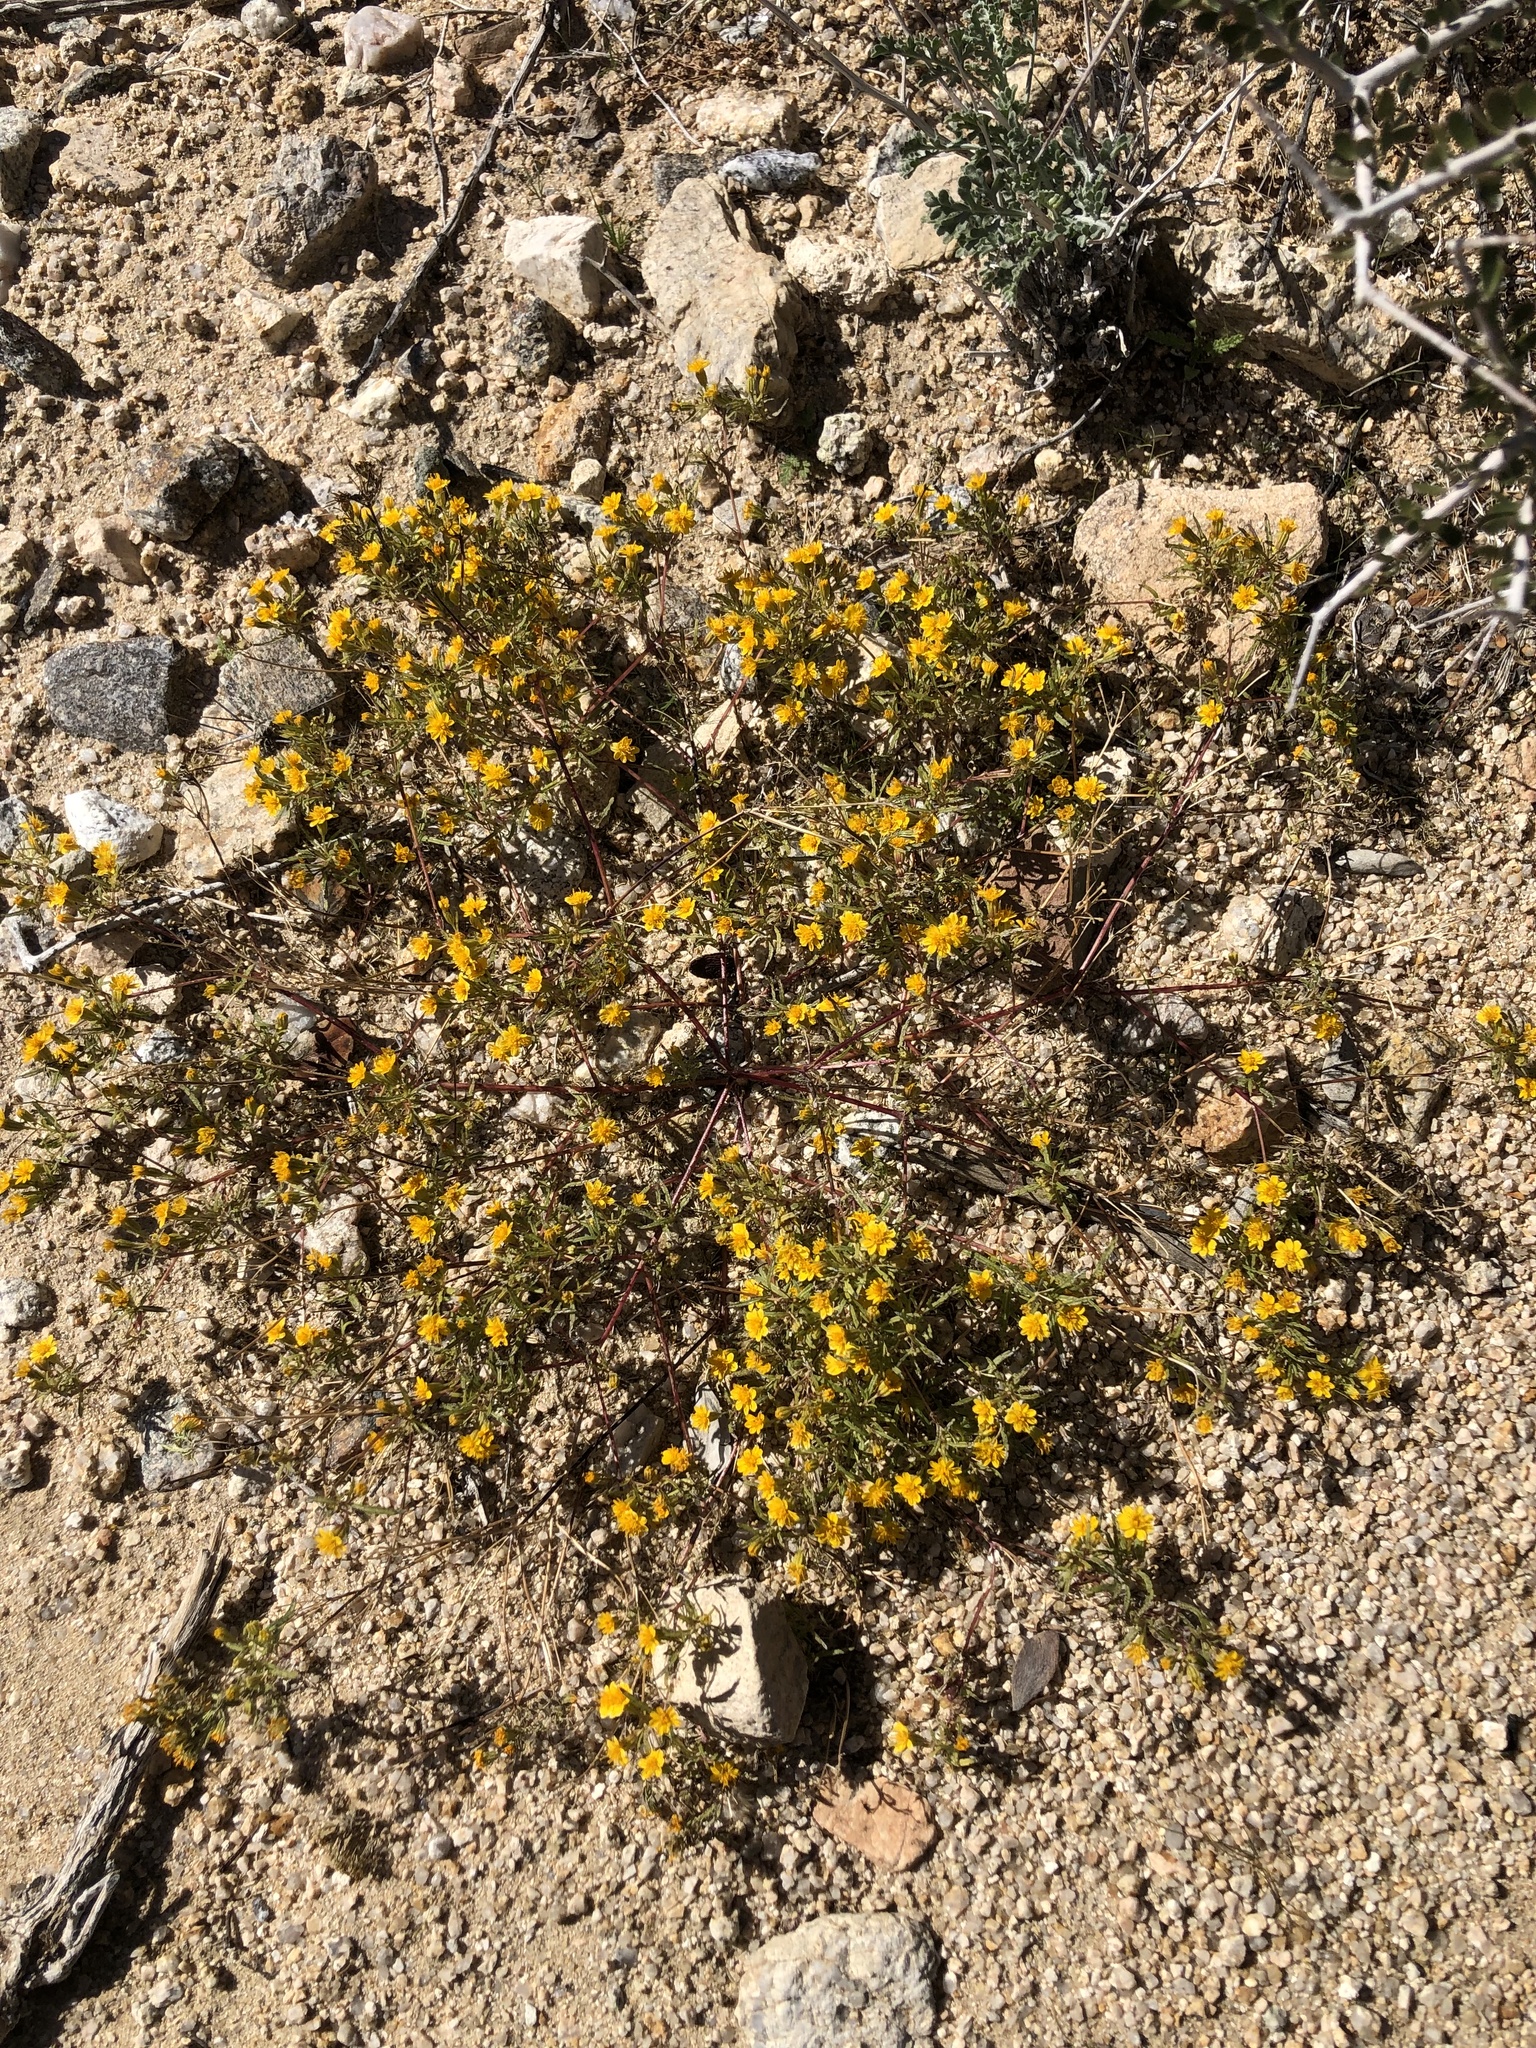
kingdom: Plantae
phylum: Tracheophyta
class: Magnoliopsida
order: Asterales
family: Asteraceae
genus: Pectis
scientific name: Pectis papposa
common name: Many-bristle chinchweed
